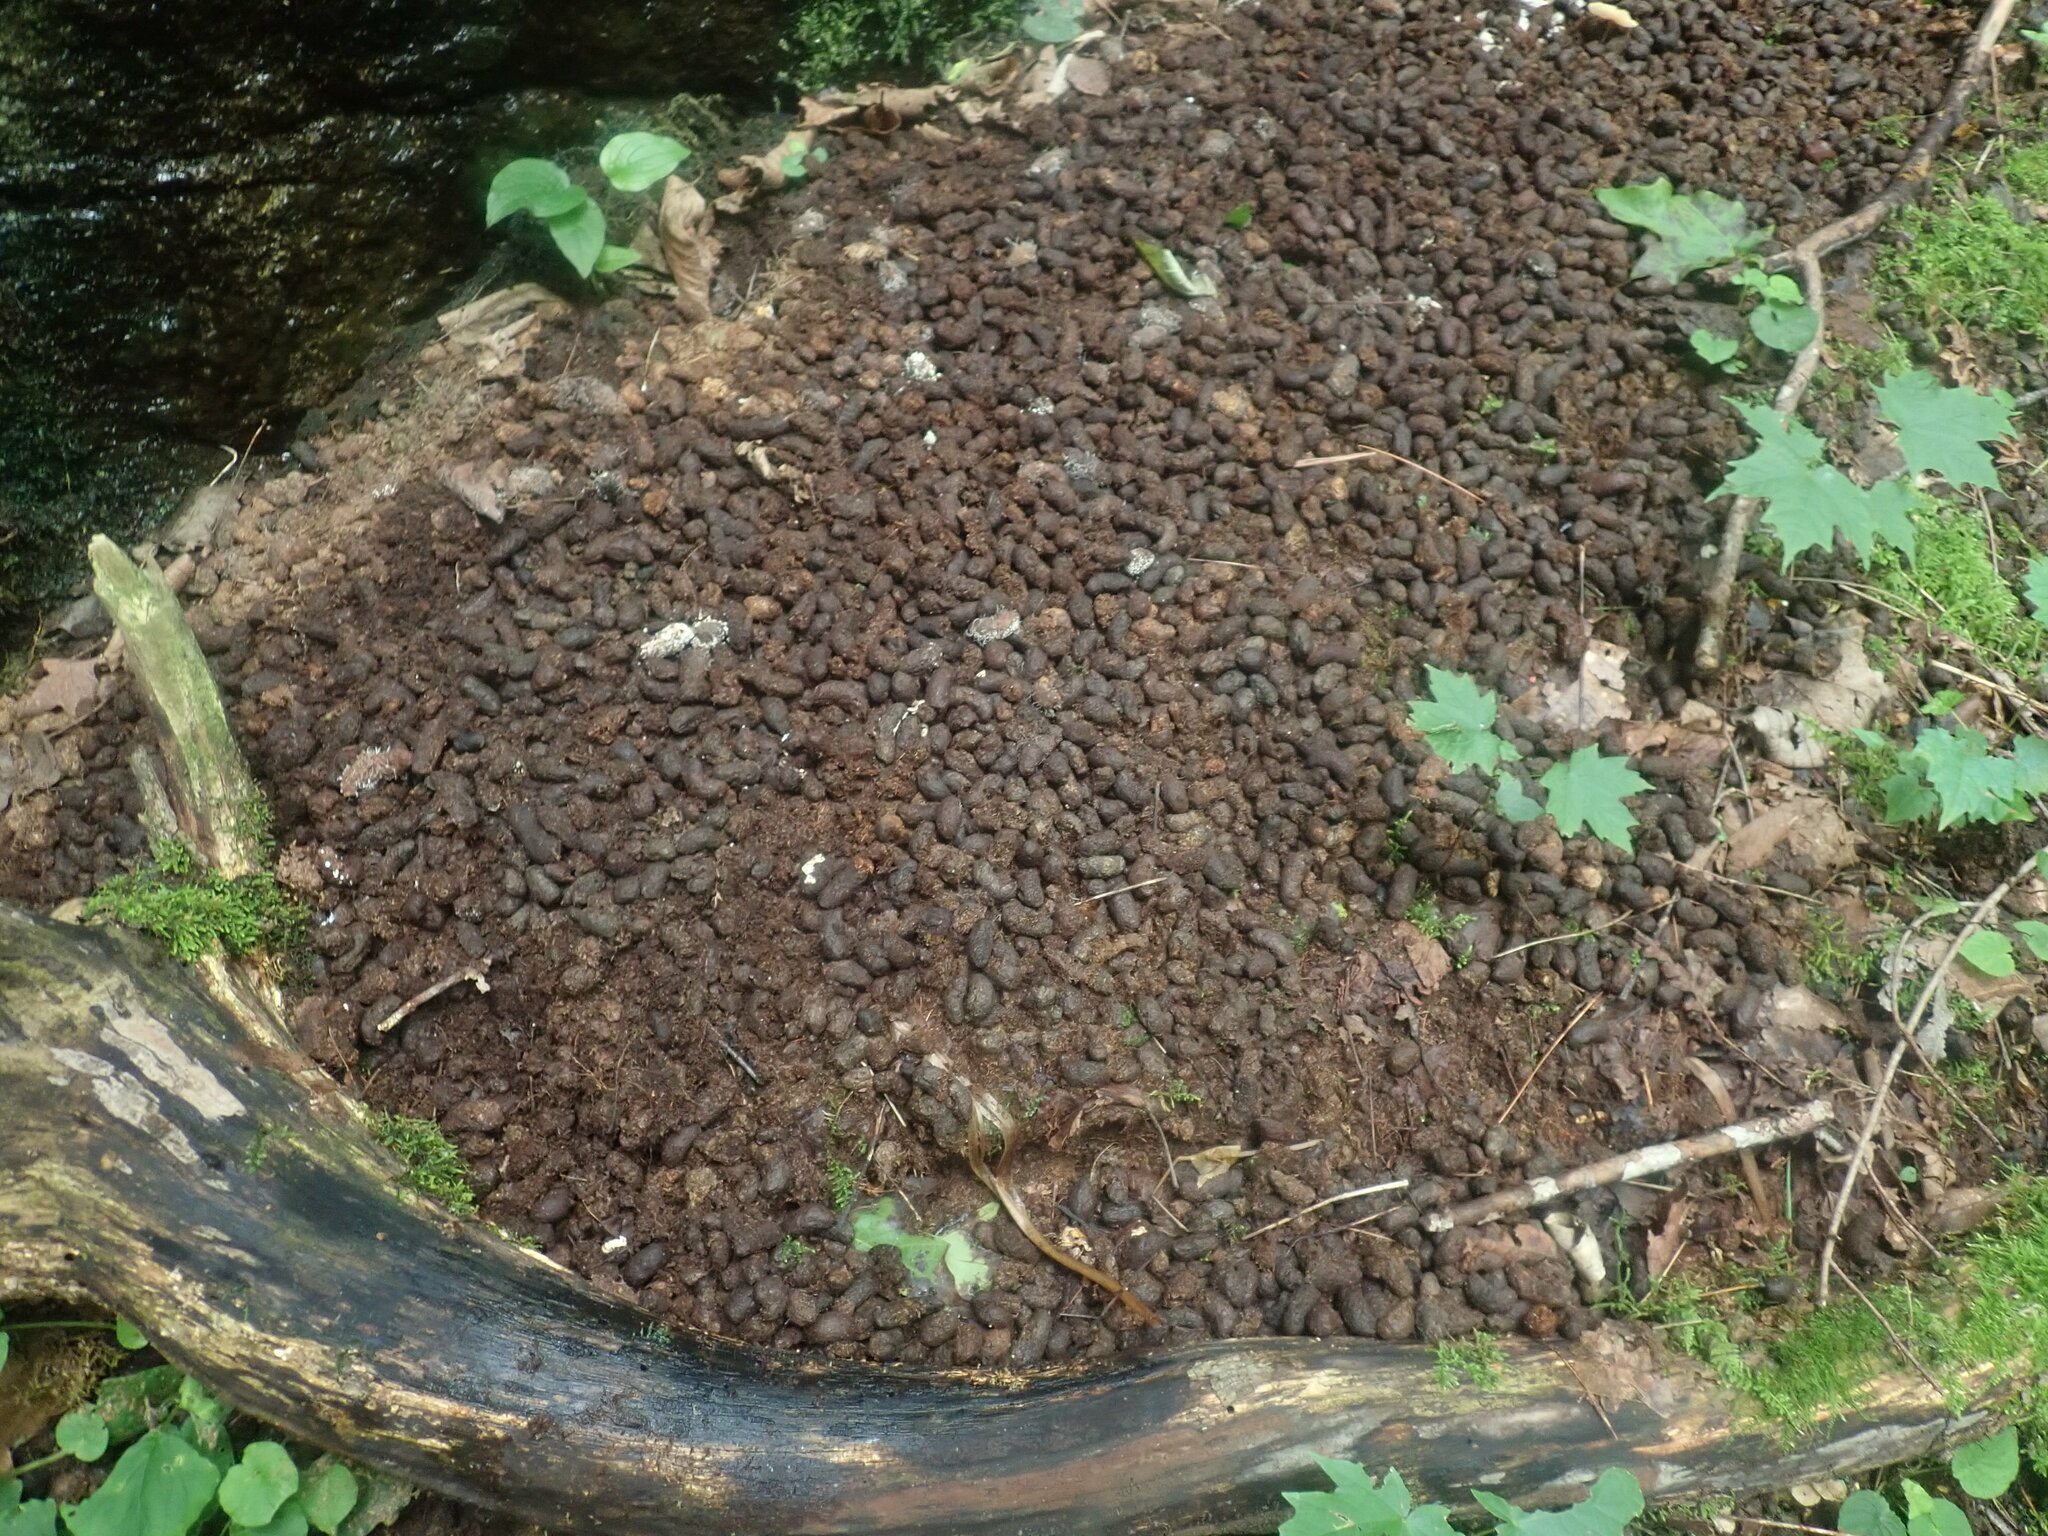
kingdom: Animalia
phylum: Chordata
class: Mammalia
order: Rodentia
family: Erethizontidae
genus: Erethizon
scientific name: Erethizon dorsatus
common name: North american porcupine
